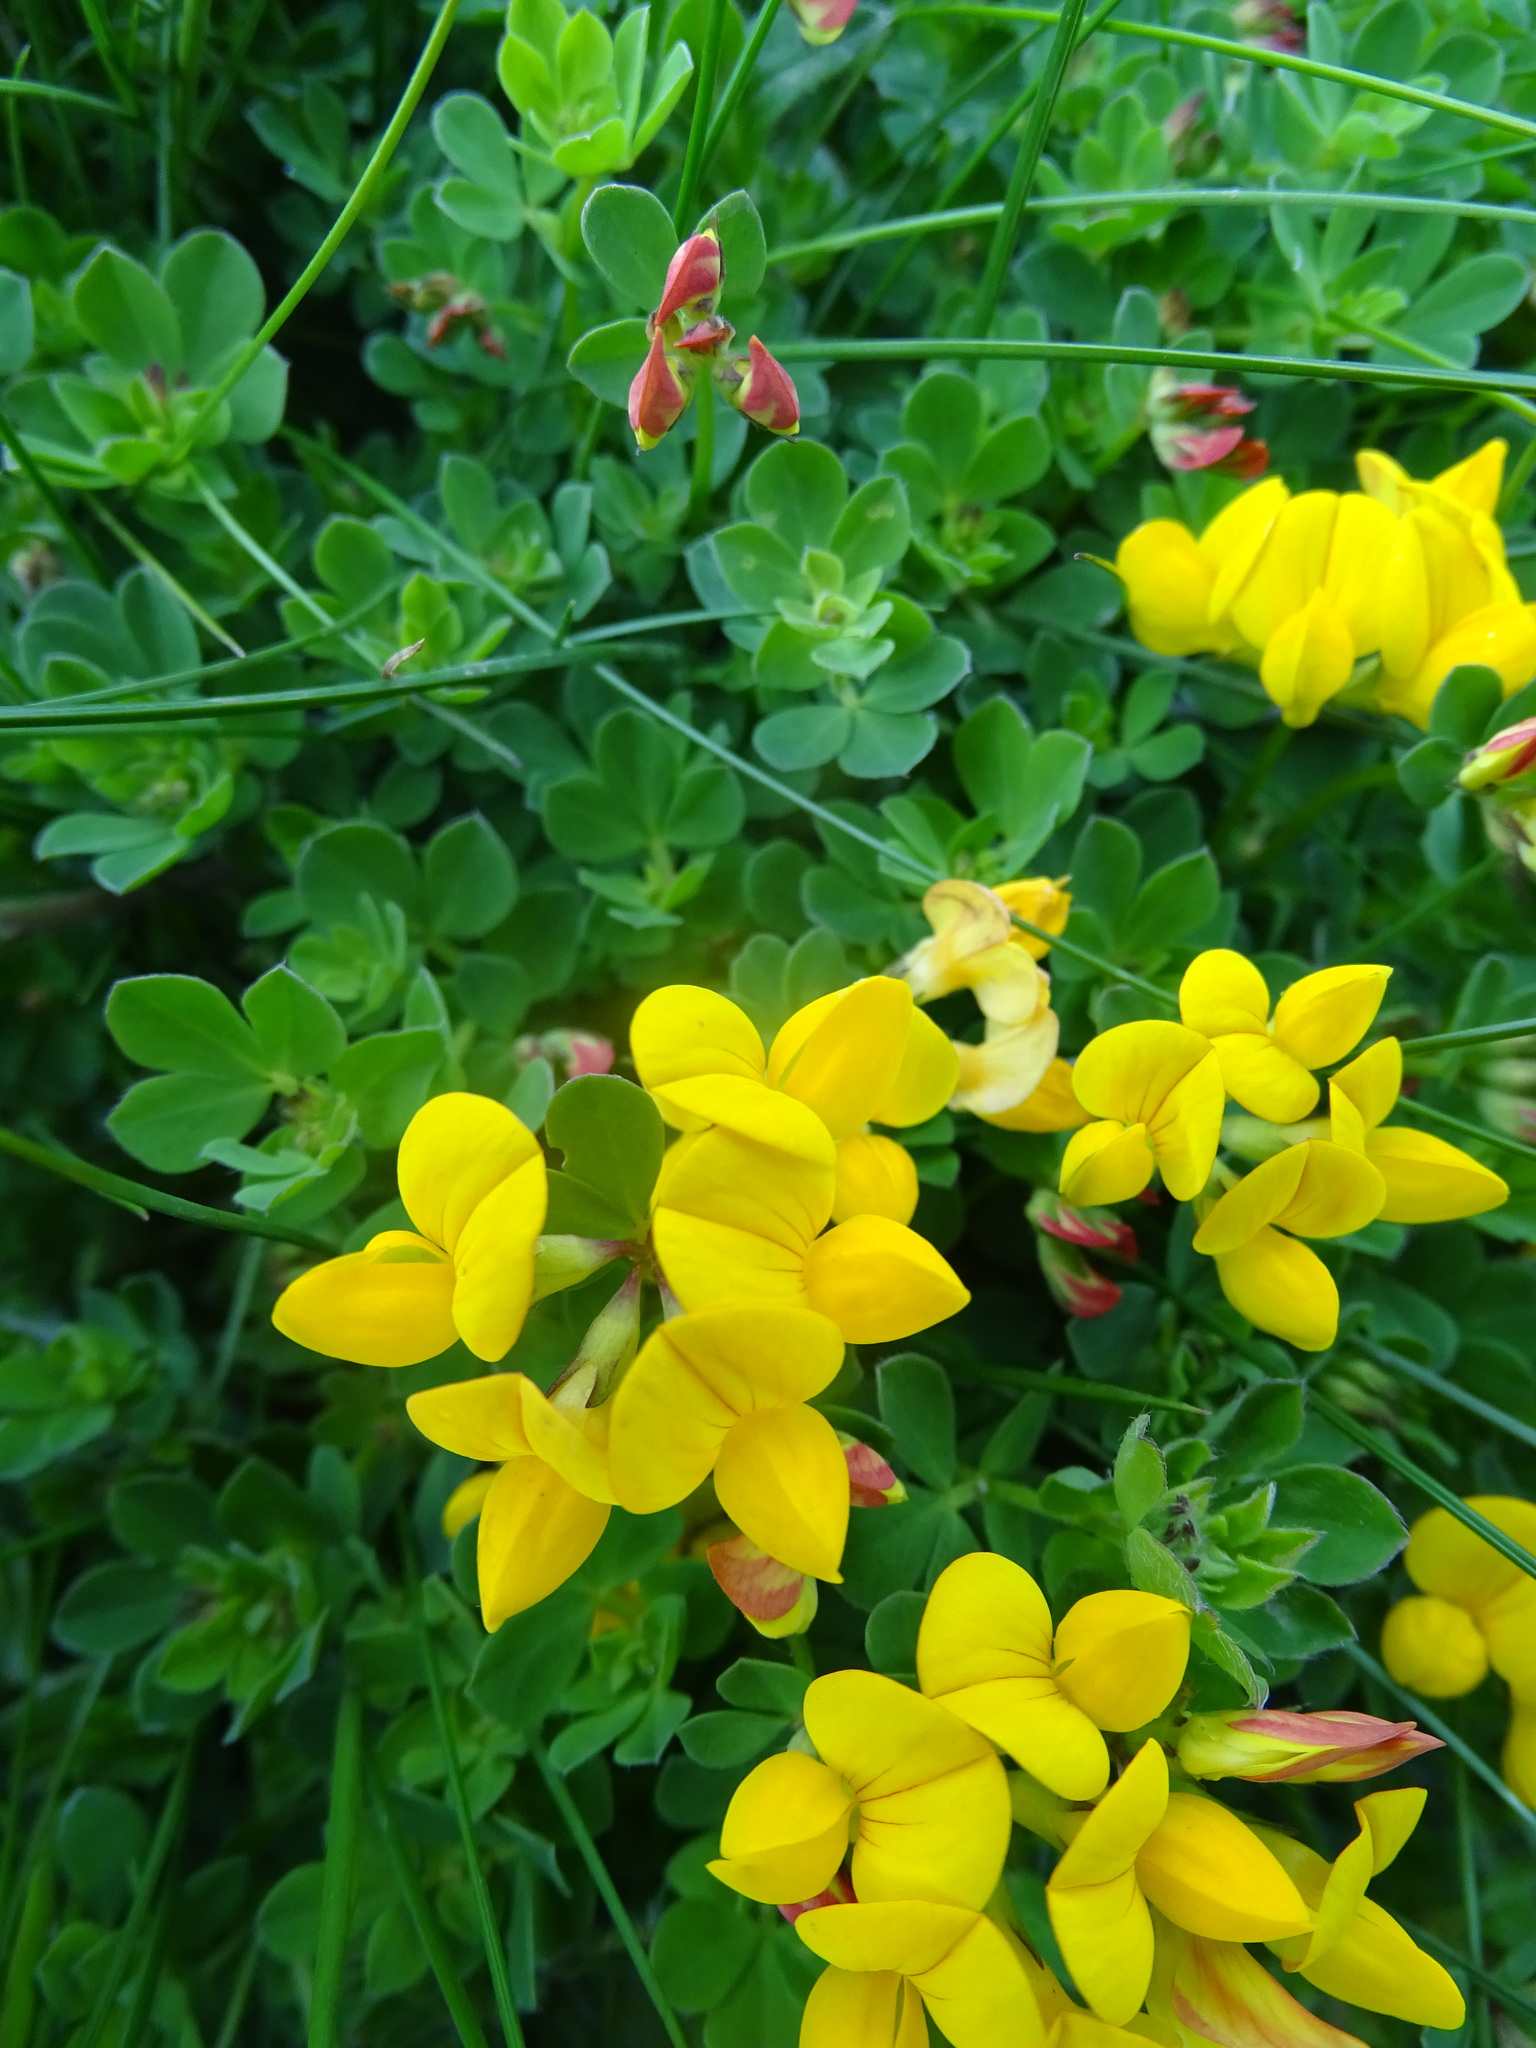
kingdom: Plantae
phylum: Tracheophyta
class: Magnoliopsida
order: Fabales
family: Fabaceae
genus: Lotus
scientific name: Lotus corniculatus
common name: Common bird's-foot-trefoil
